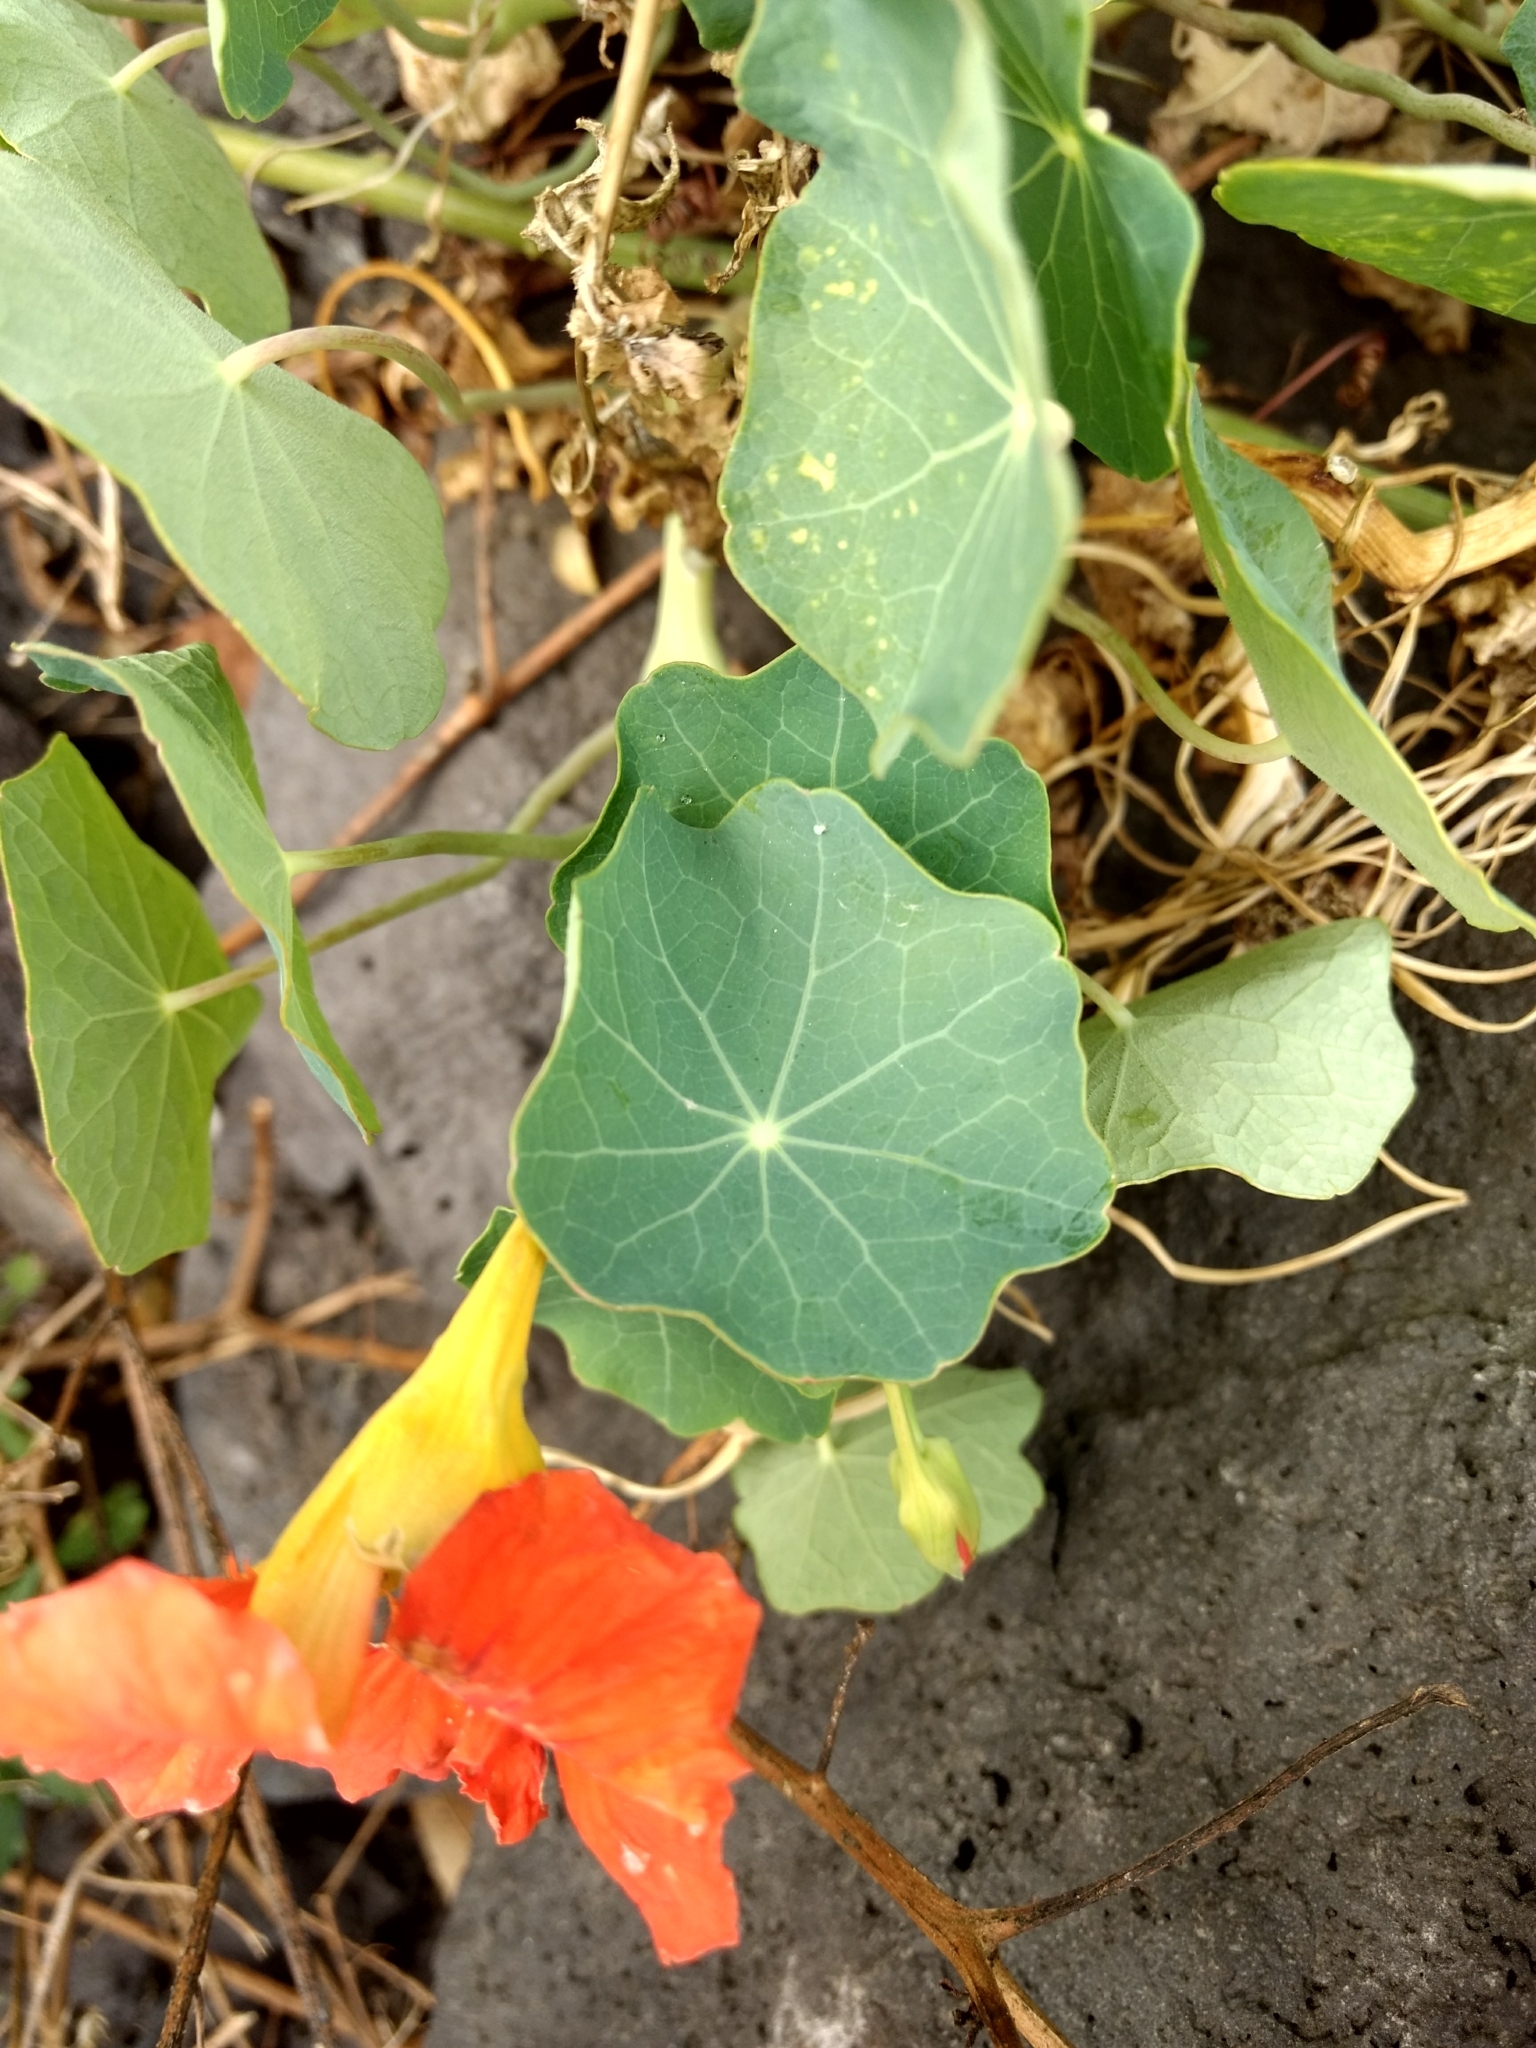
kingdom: Plantae
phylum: Tracheophyta
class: Magnoliopsida
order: Brassicales
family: Tropaeolaceae
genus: Tropaeolum
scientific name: Tropaeolum majus
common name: Nasturtium
